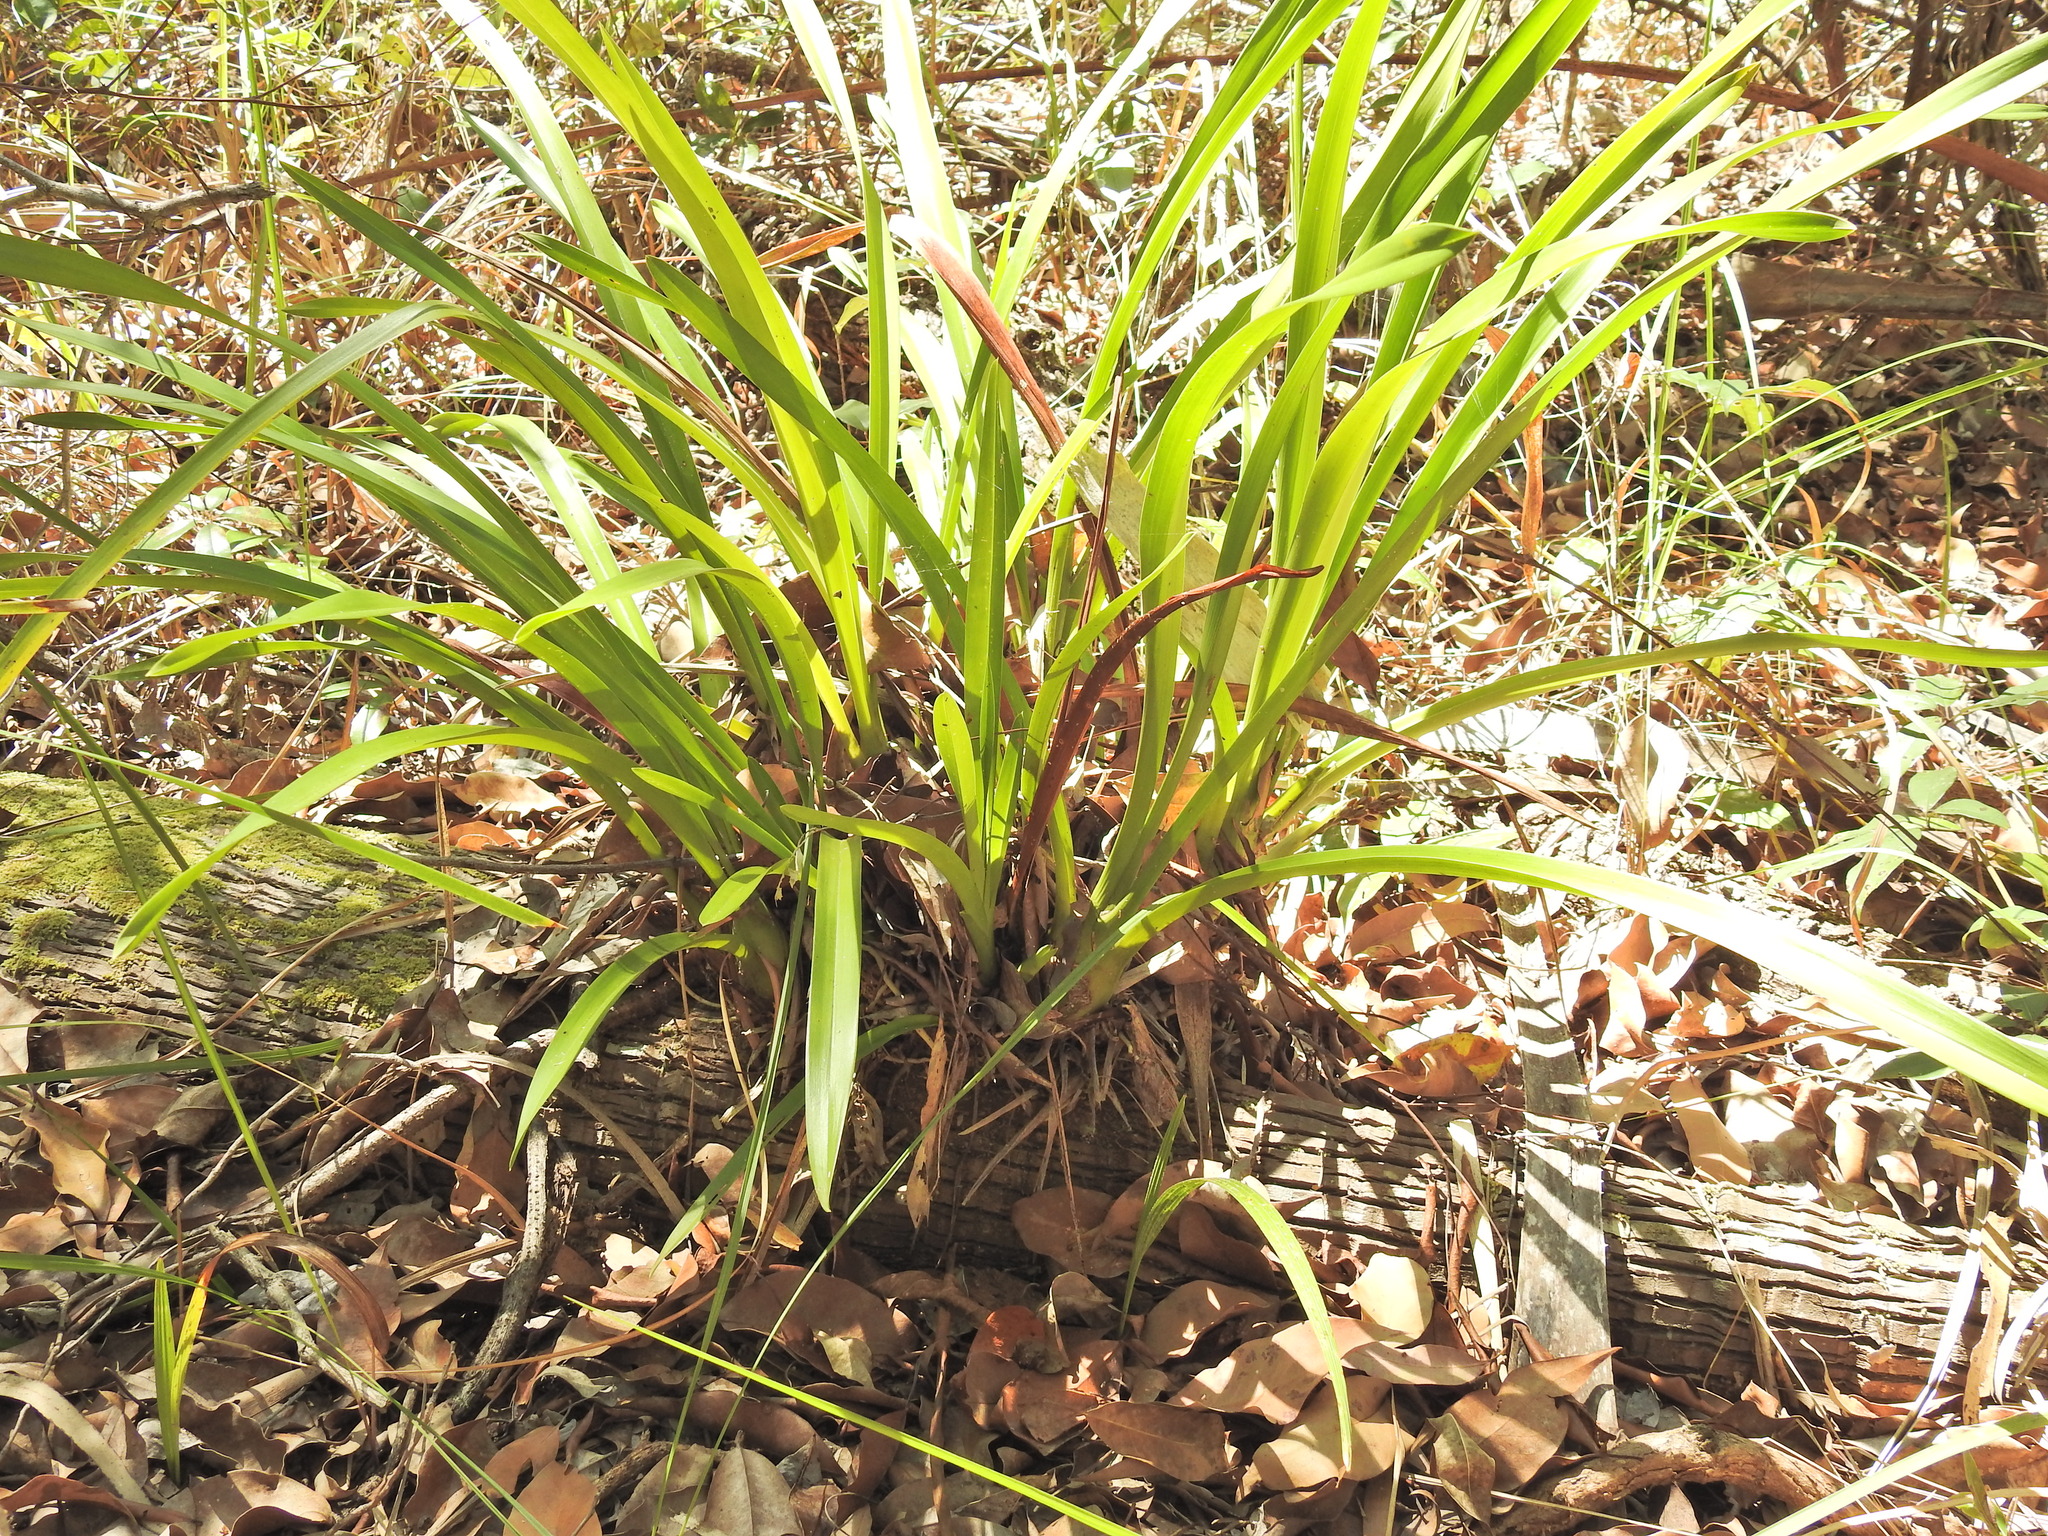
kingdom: Plantae
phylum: Tracheophyta
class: Liliopsida
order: Asparagales
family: Orchidaceae
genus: Cymbidium
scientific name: Cymbidium madidum
